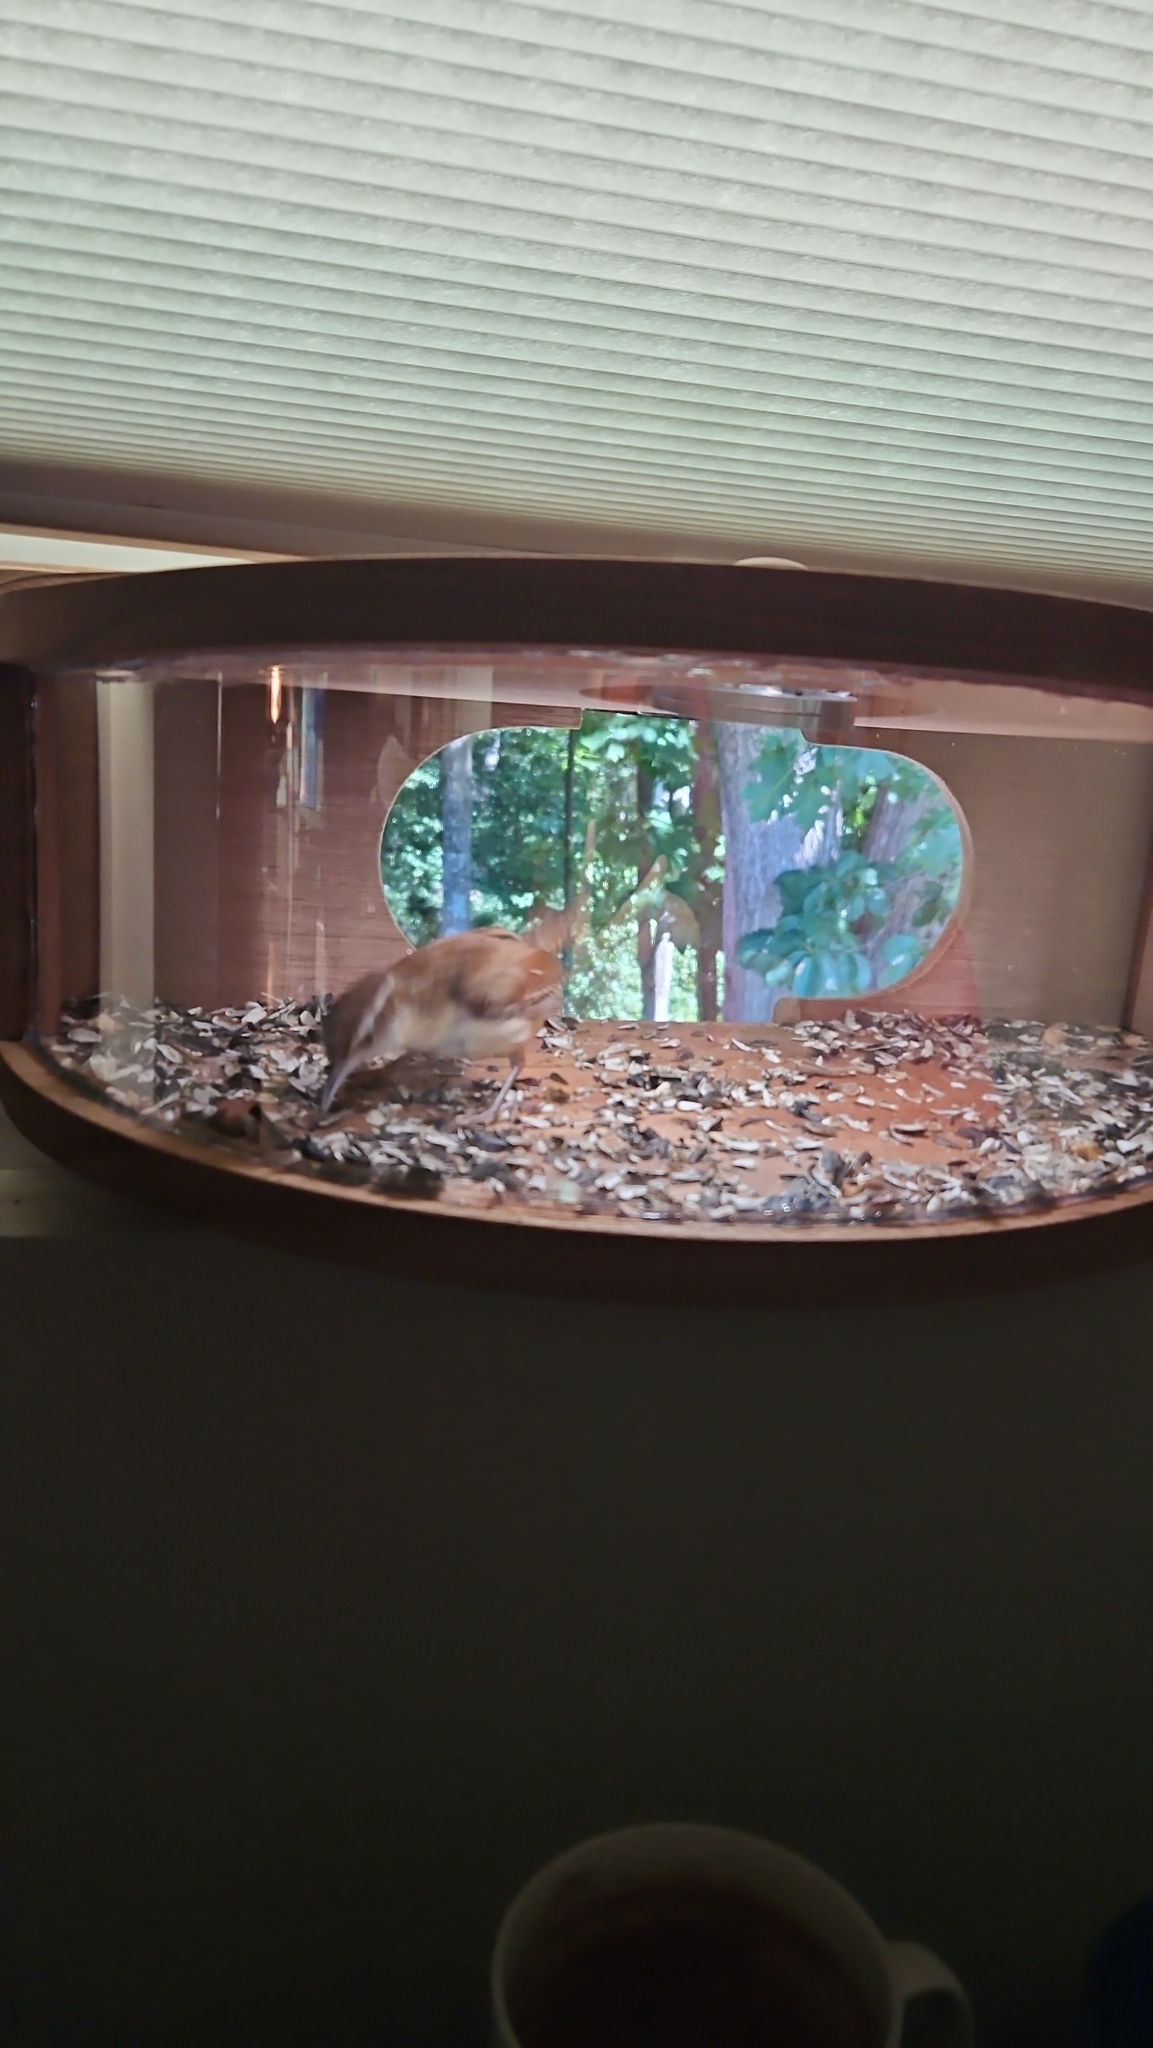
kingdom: Animalia
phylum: Chordata
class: Aves
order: Passeriformes
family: Troglodytidae
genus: Thryothorus
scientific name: Thryothorus ludovicianus
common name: Carolina wren
